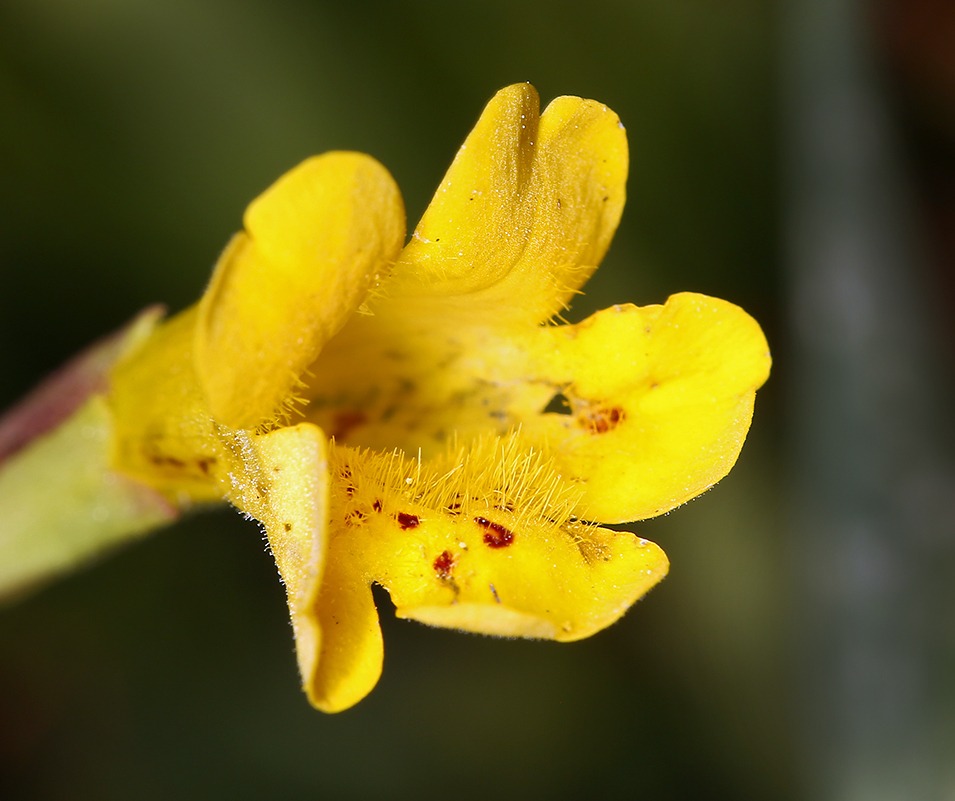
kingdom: Plantae
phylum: Tracheophyta
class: Magnoliopsida
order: Lamiales
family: Phrymaceae
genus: Erythranthe
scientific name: Erythranthe linearifolia
